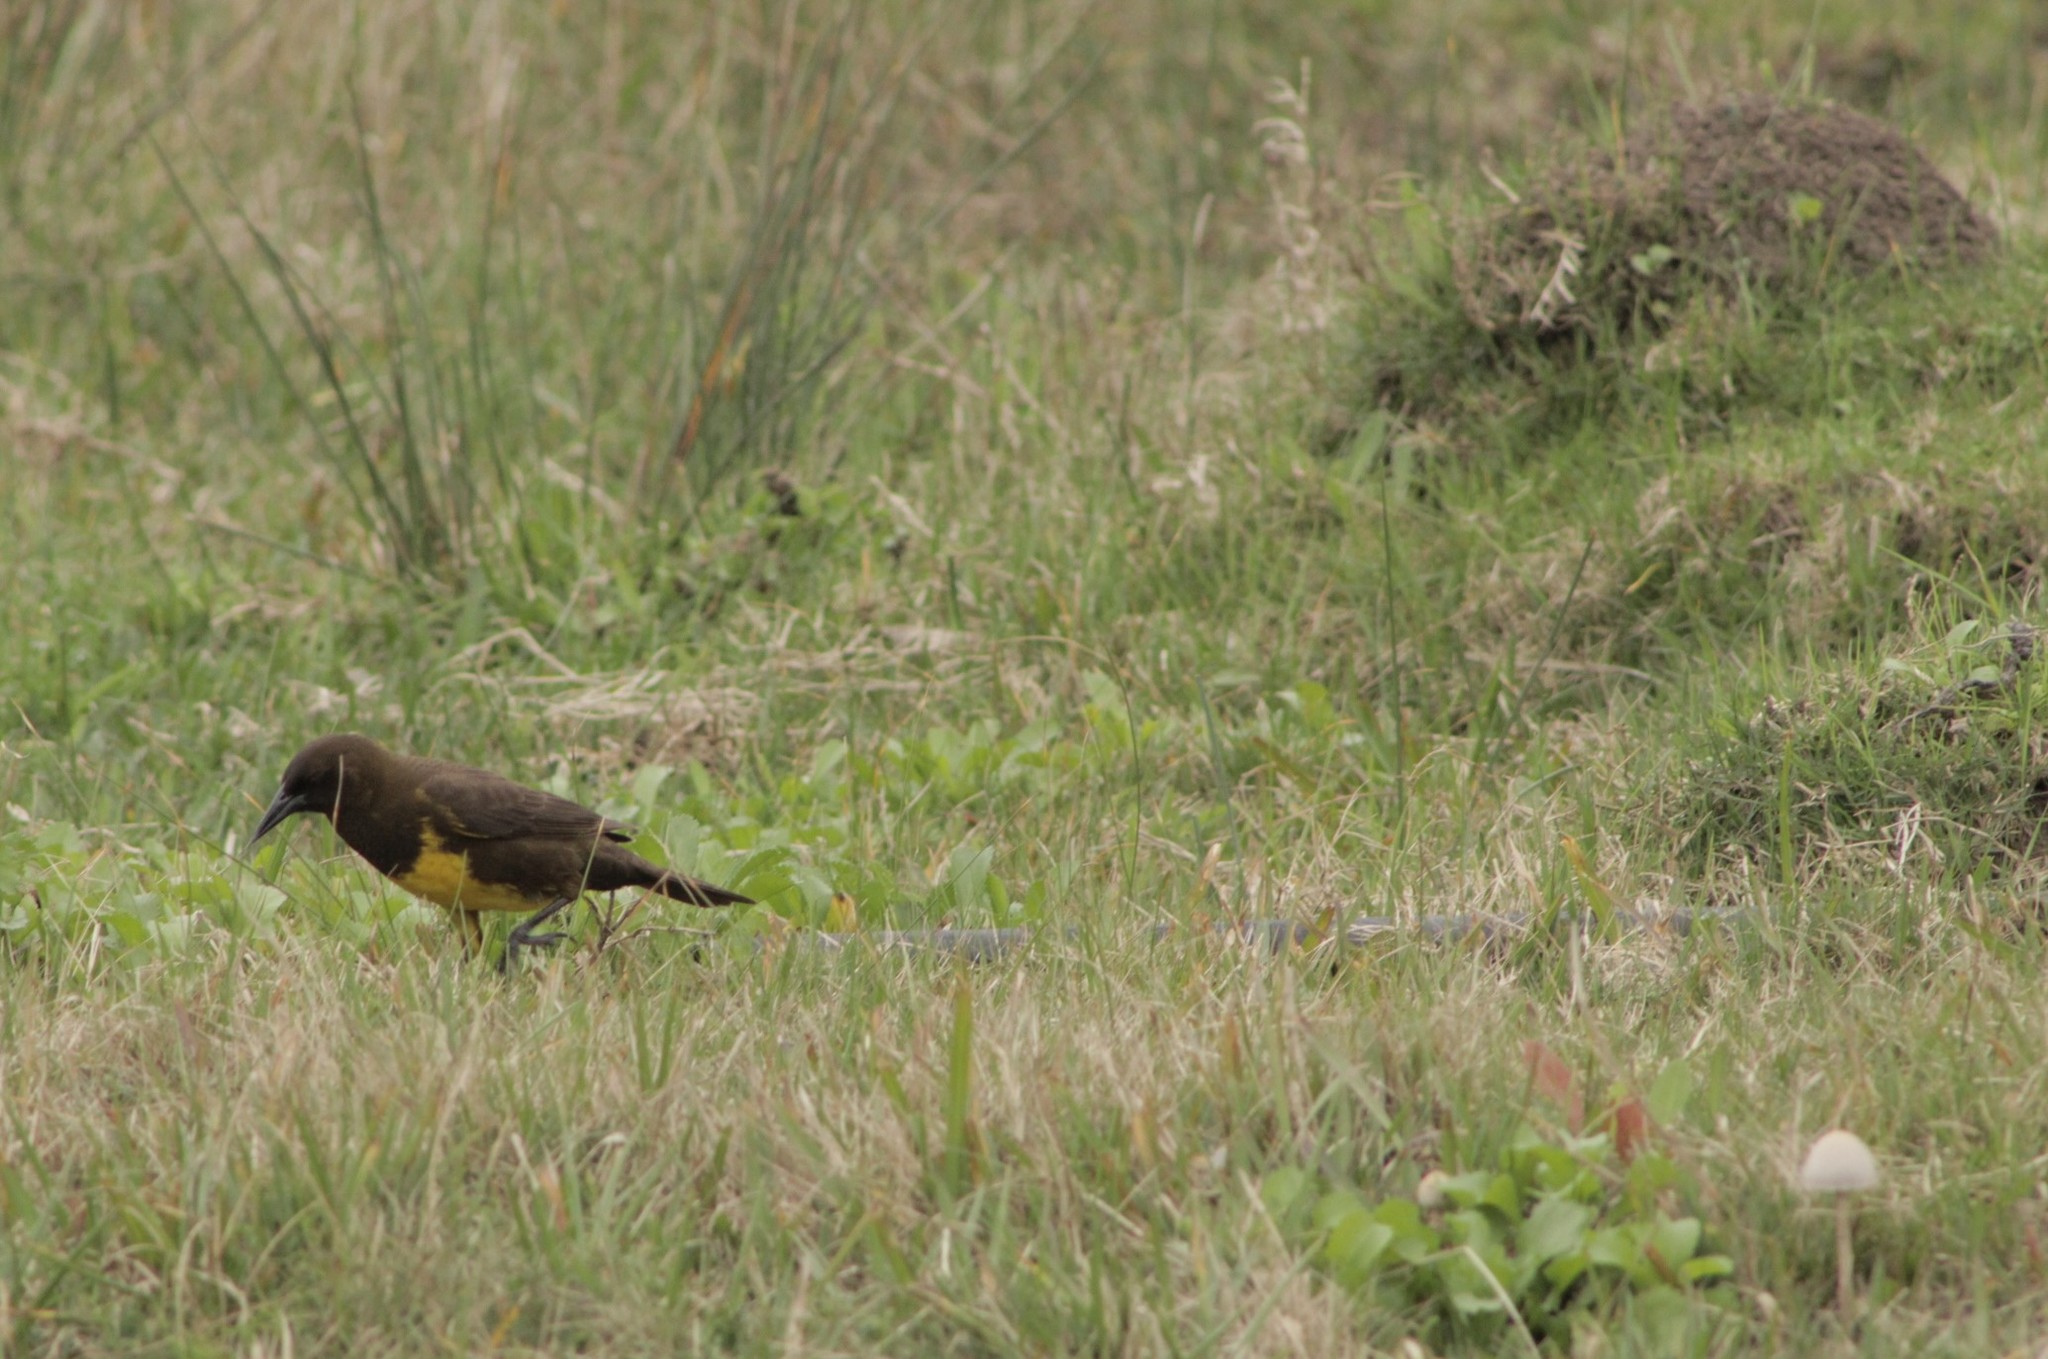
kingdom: Animalia
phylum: Chordata
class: Aves
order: Passeriformes
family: Icteridae
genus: Pseudoleistes
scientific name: Pseudoleistes virescens
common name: Brown-and-yellow marshbird
